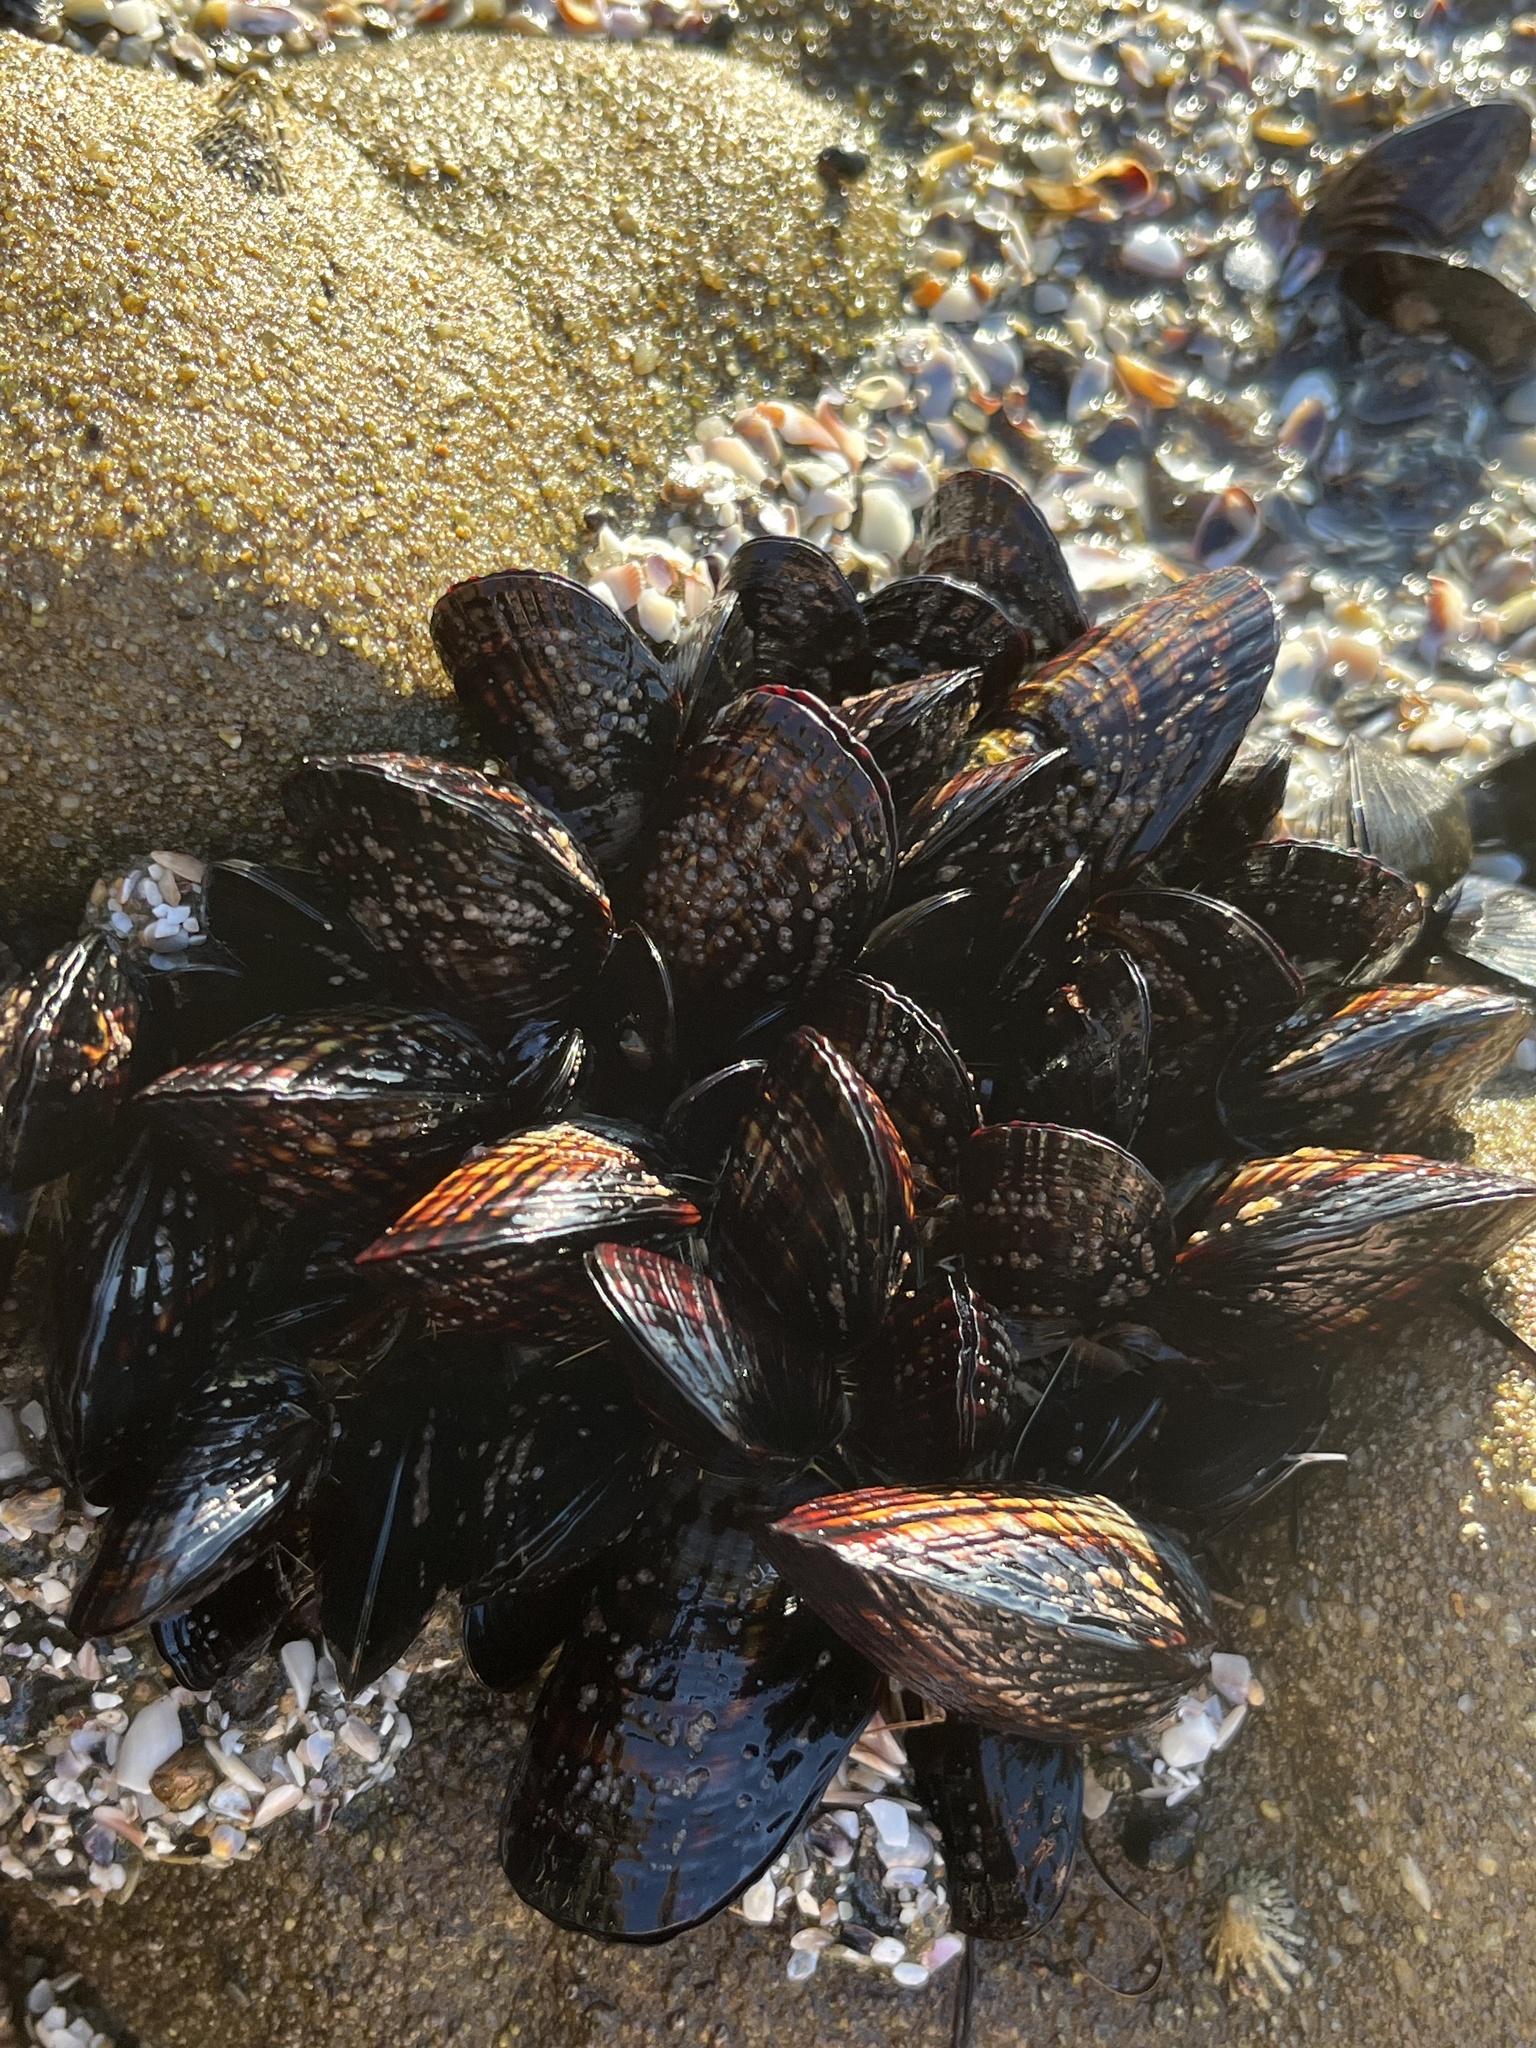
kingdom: Animalia
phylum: Mollusca
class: Bivalvia
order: Mytilida
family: Mytilidae
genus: Mytilus
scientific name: Mytilus californianus
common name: California mussel
